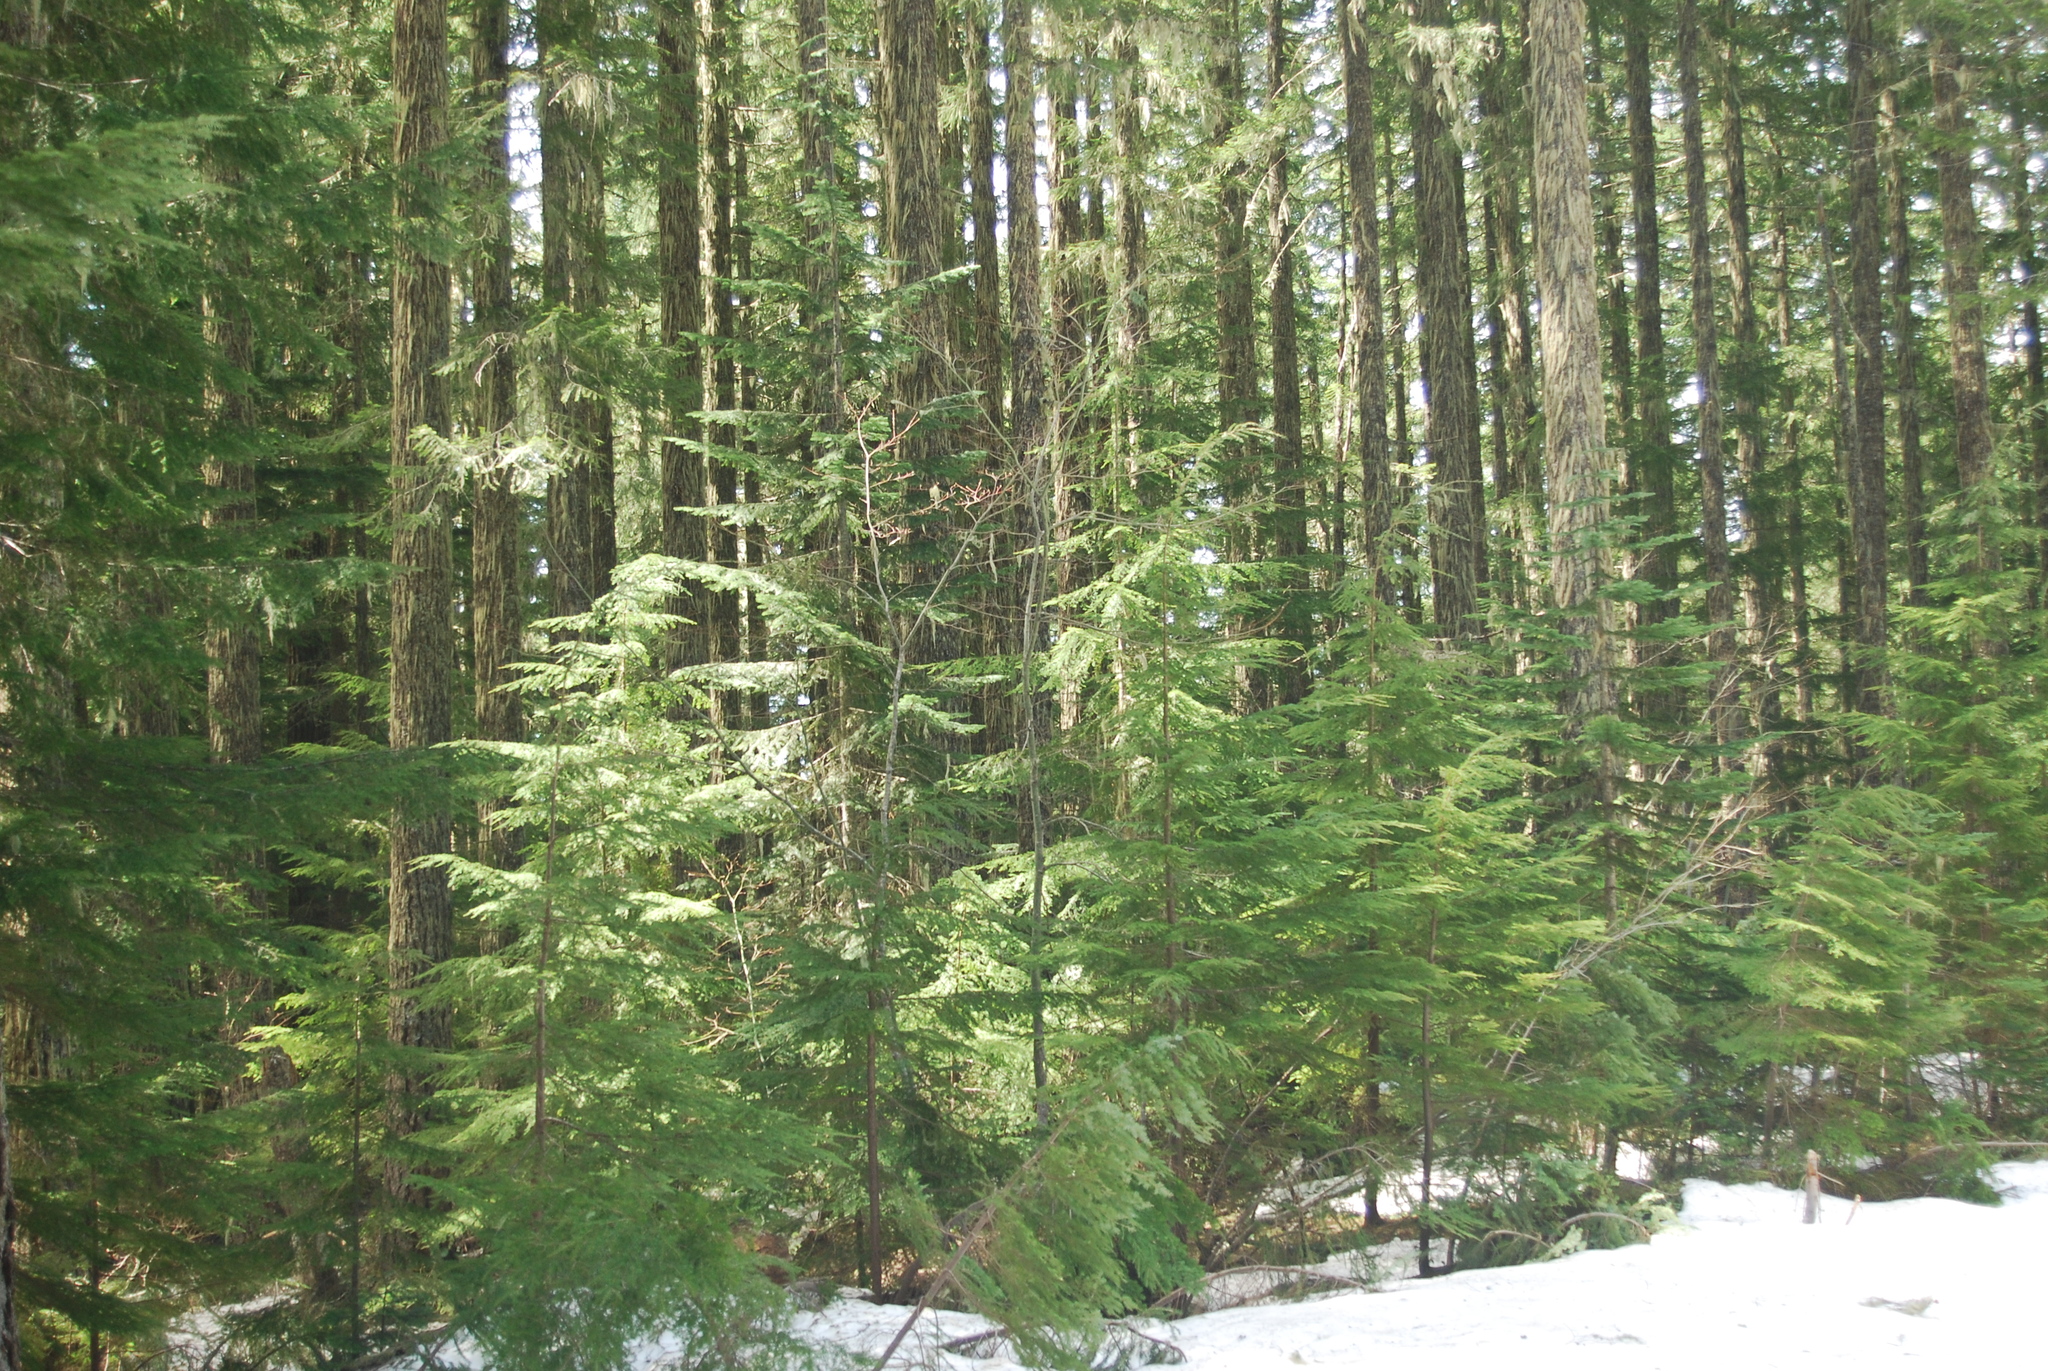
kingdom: Plantae
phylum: Tracheophyta
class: Pinopsida
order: Pinales
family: Pinaceae
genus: Tsuga
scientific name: Tsuga heterophylla
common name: Western hemlock
